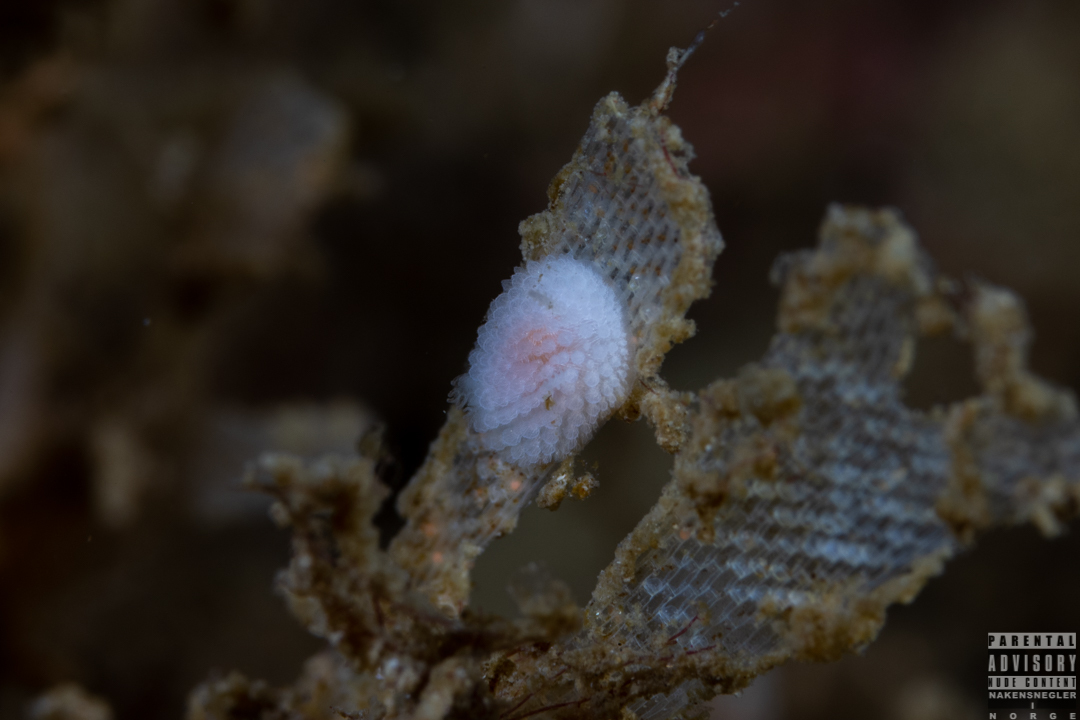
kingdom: Animalia
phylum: Mollusca
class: Gastropoda
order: Nudibranchia
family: Onchidorididae
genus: Onchidoris
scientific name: Onchidoris muricata
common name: Rough doris
